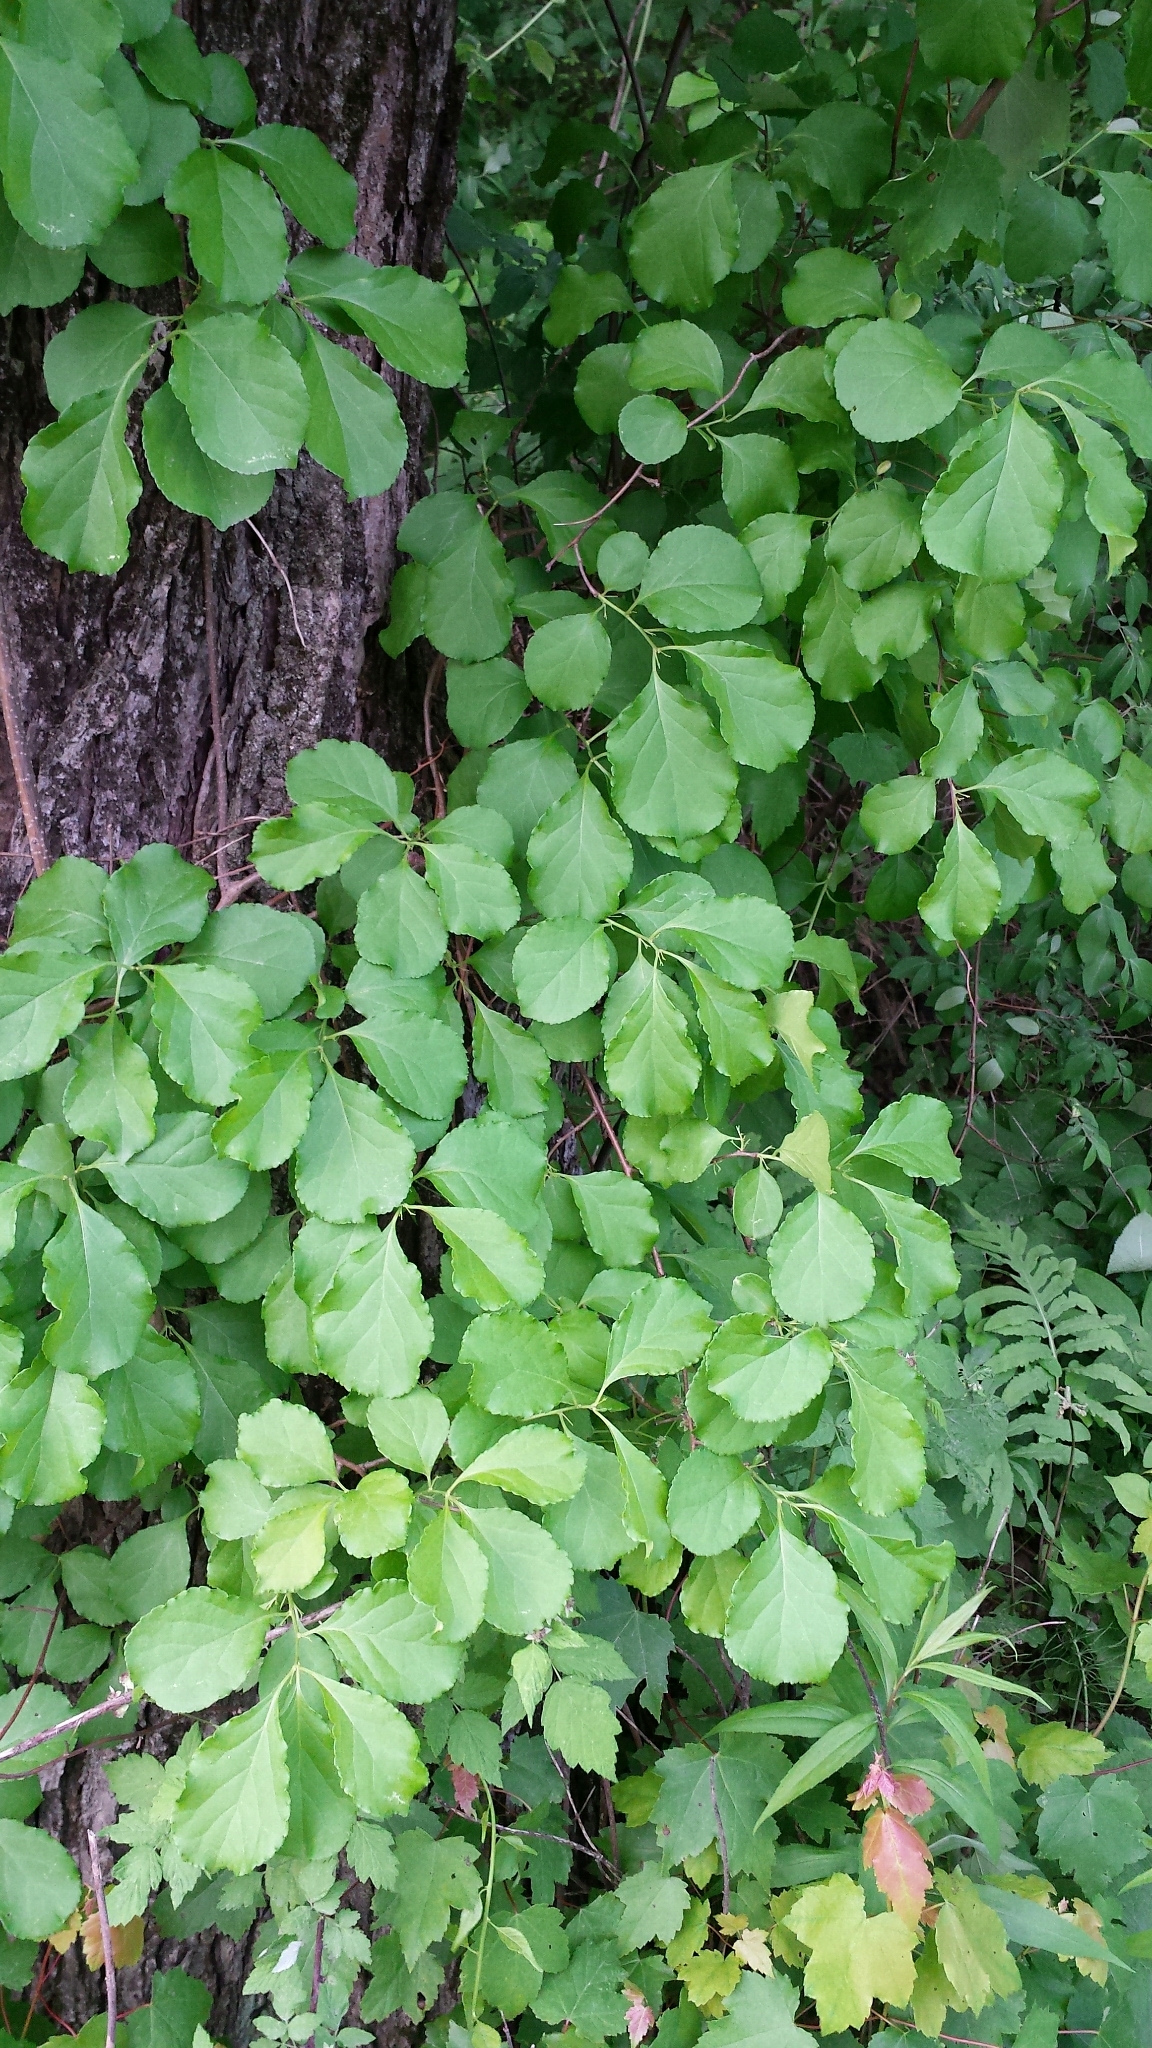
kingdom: Plantae
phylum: Tracheophyta
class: Magnoliopsida
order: Celastrales
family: Celastraceae
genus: Celastrus
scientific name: Celastrus orbiculatus
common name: Oriental bittersweet
